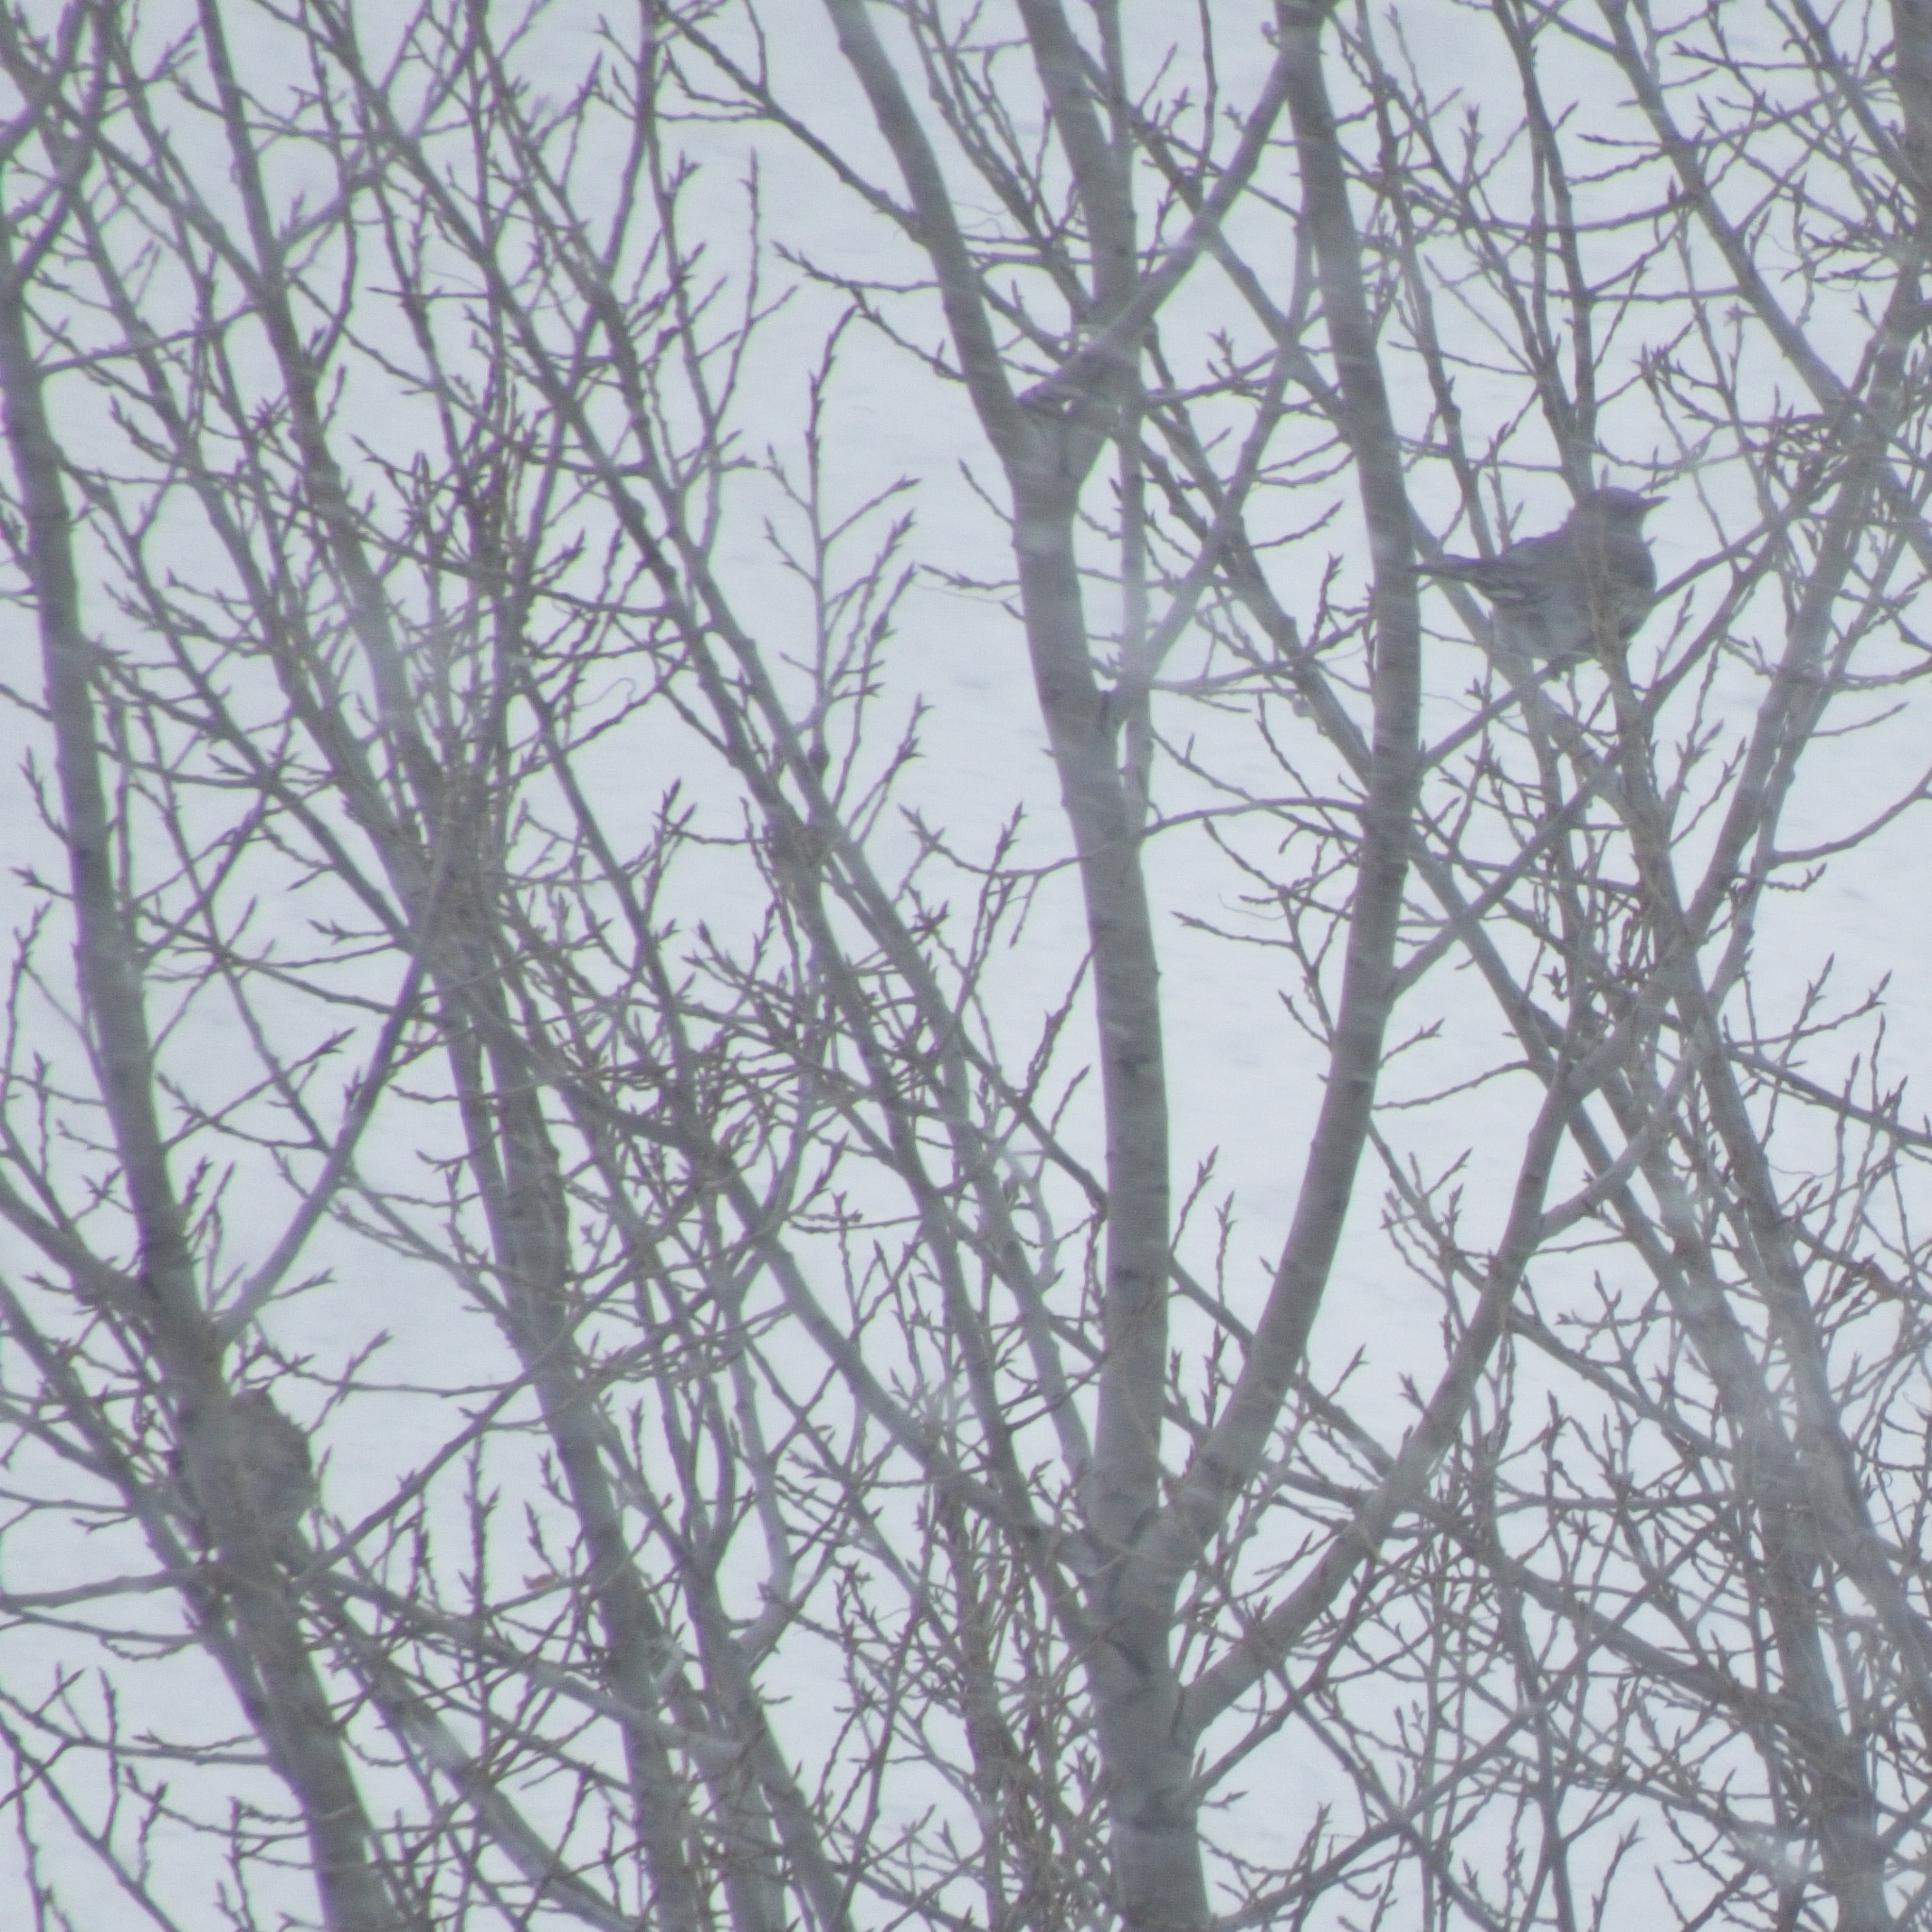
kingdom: Animalia
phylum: Chordata
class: Aves
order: Passeriformes
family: Turdidae
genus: Turdus
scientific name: Turdus pilaris
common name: Fieldfare
